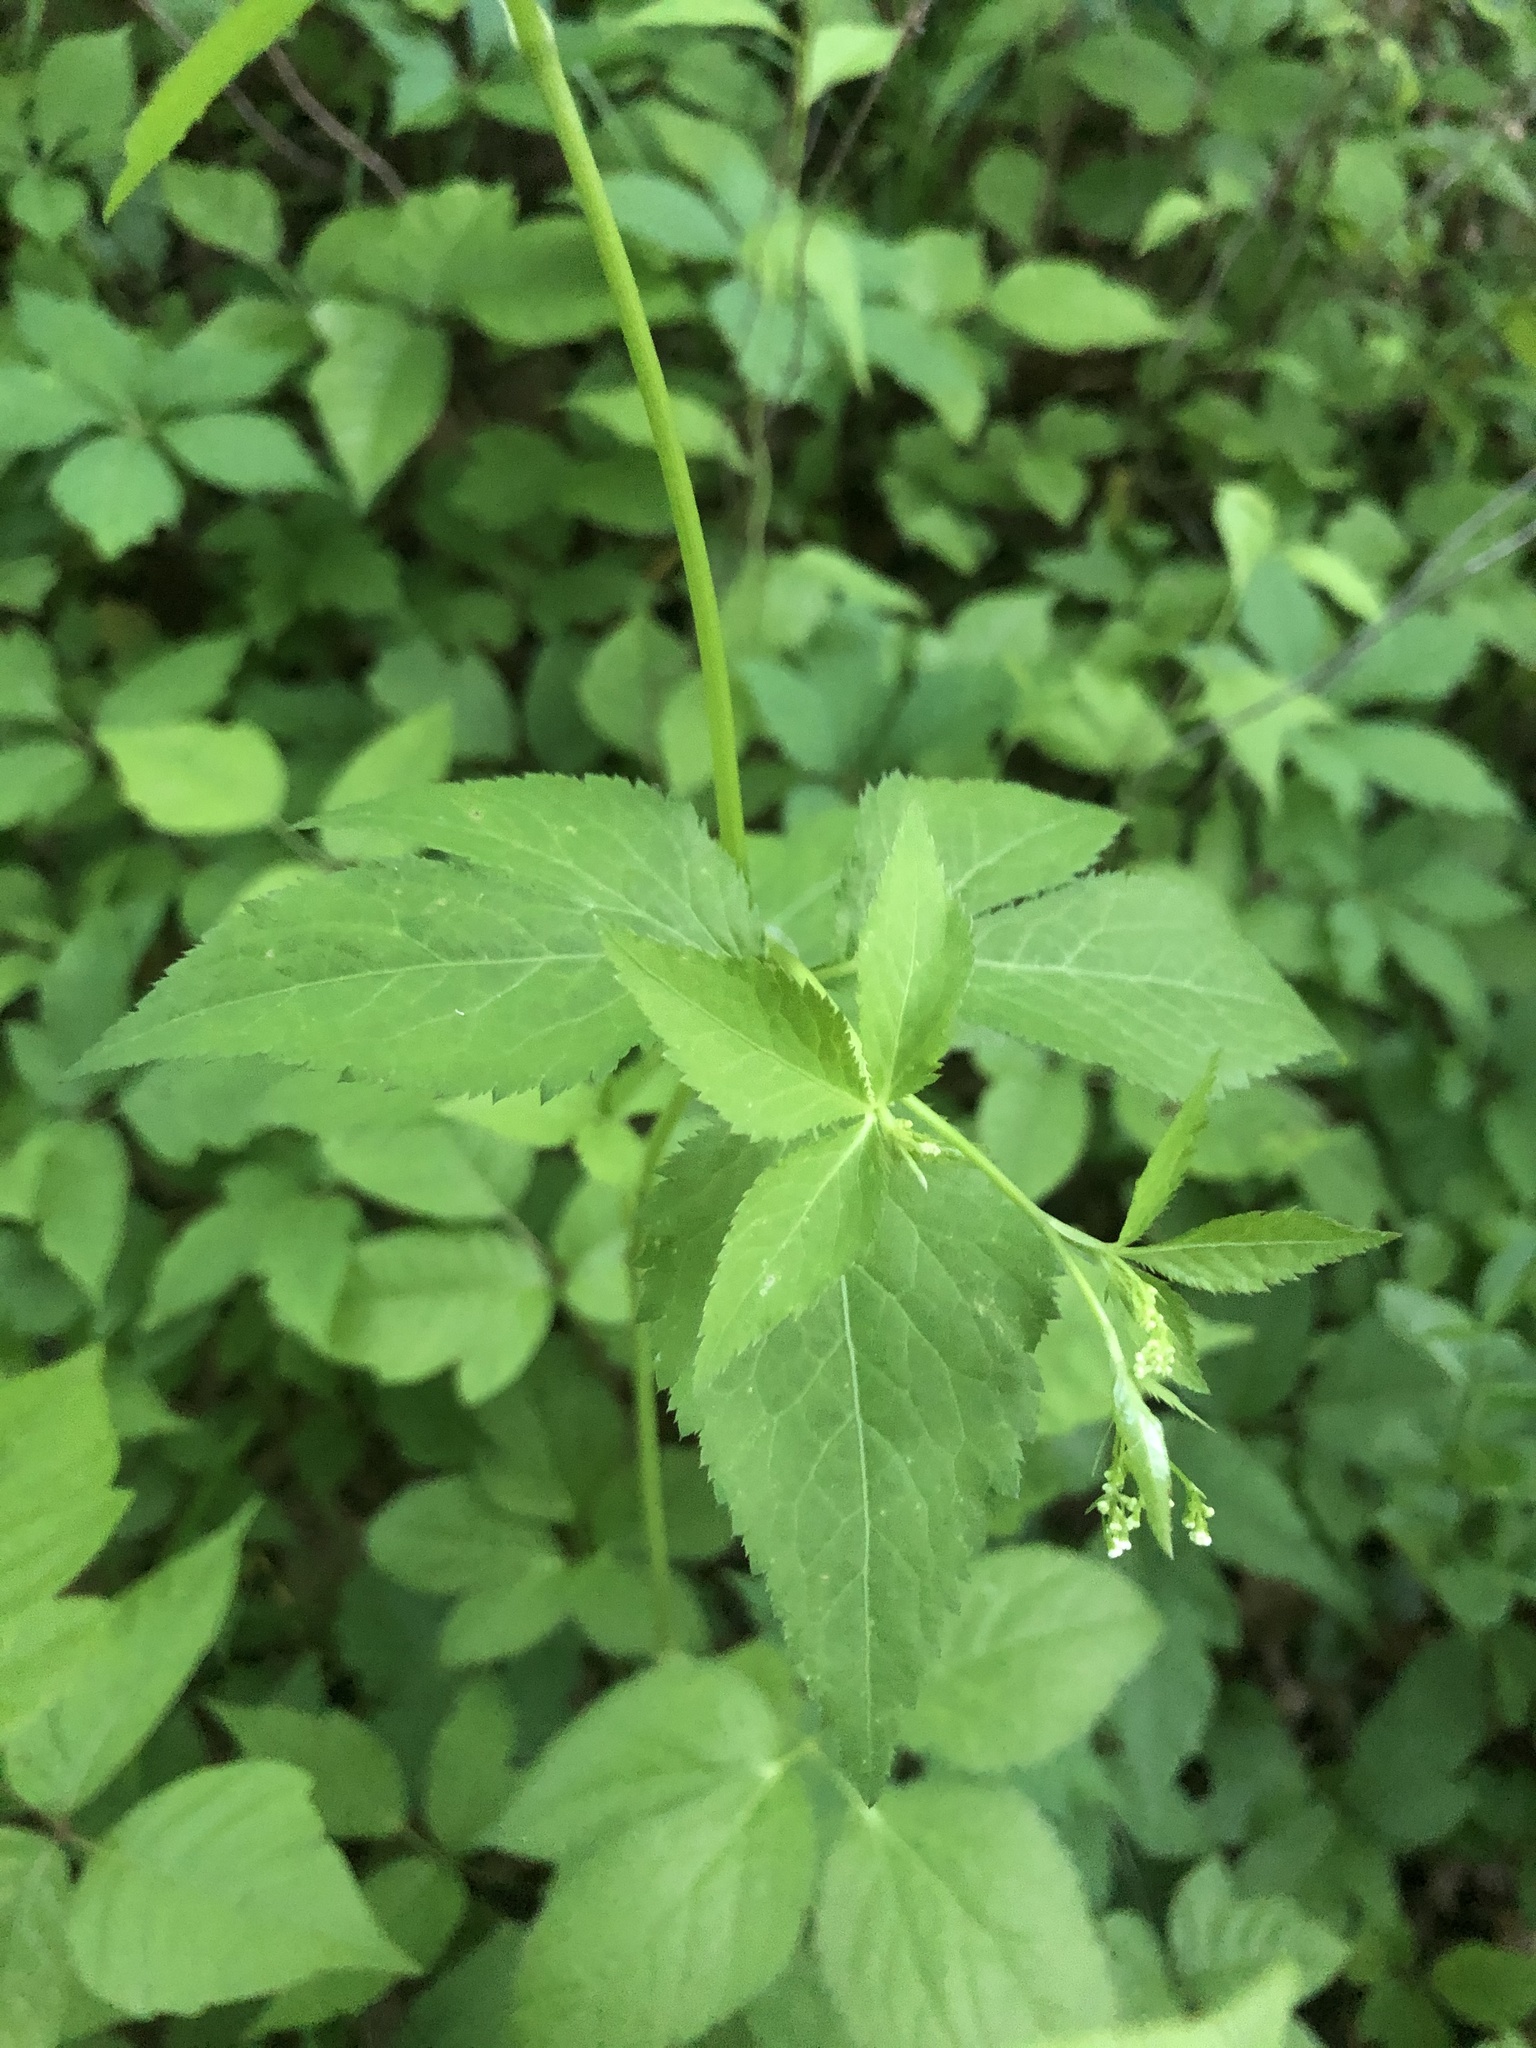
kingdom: Plantae
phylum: Tracheophyta
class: Magnoliopsida
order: Apiales
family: Apiaceae
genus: Cryptotaenia
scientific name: Cryptotaenia canadensis
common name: Honewort
